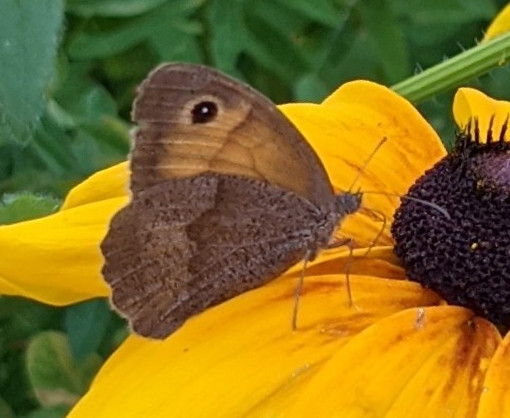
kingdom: Animalia
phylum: Arthropoda
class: Insecta
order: Lepidoptera
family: Nymphalidae
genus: Maniola
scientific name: Maniola jurtina
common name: Meadow brown
